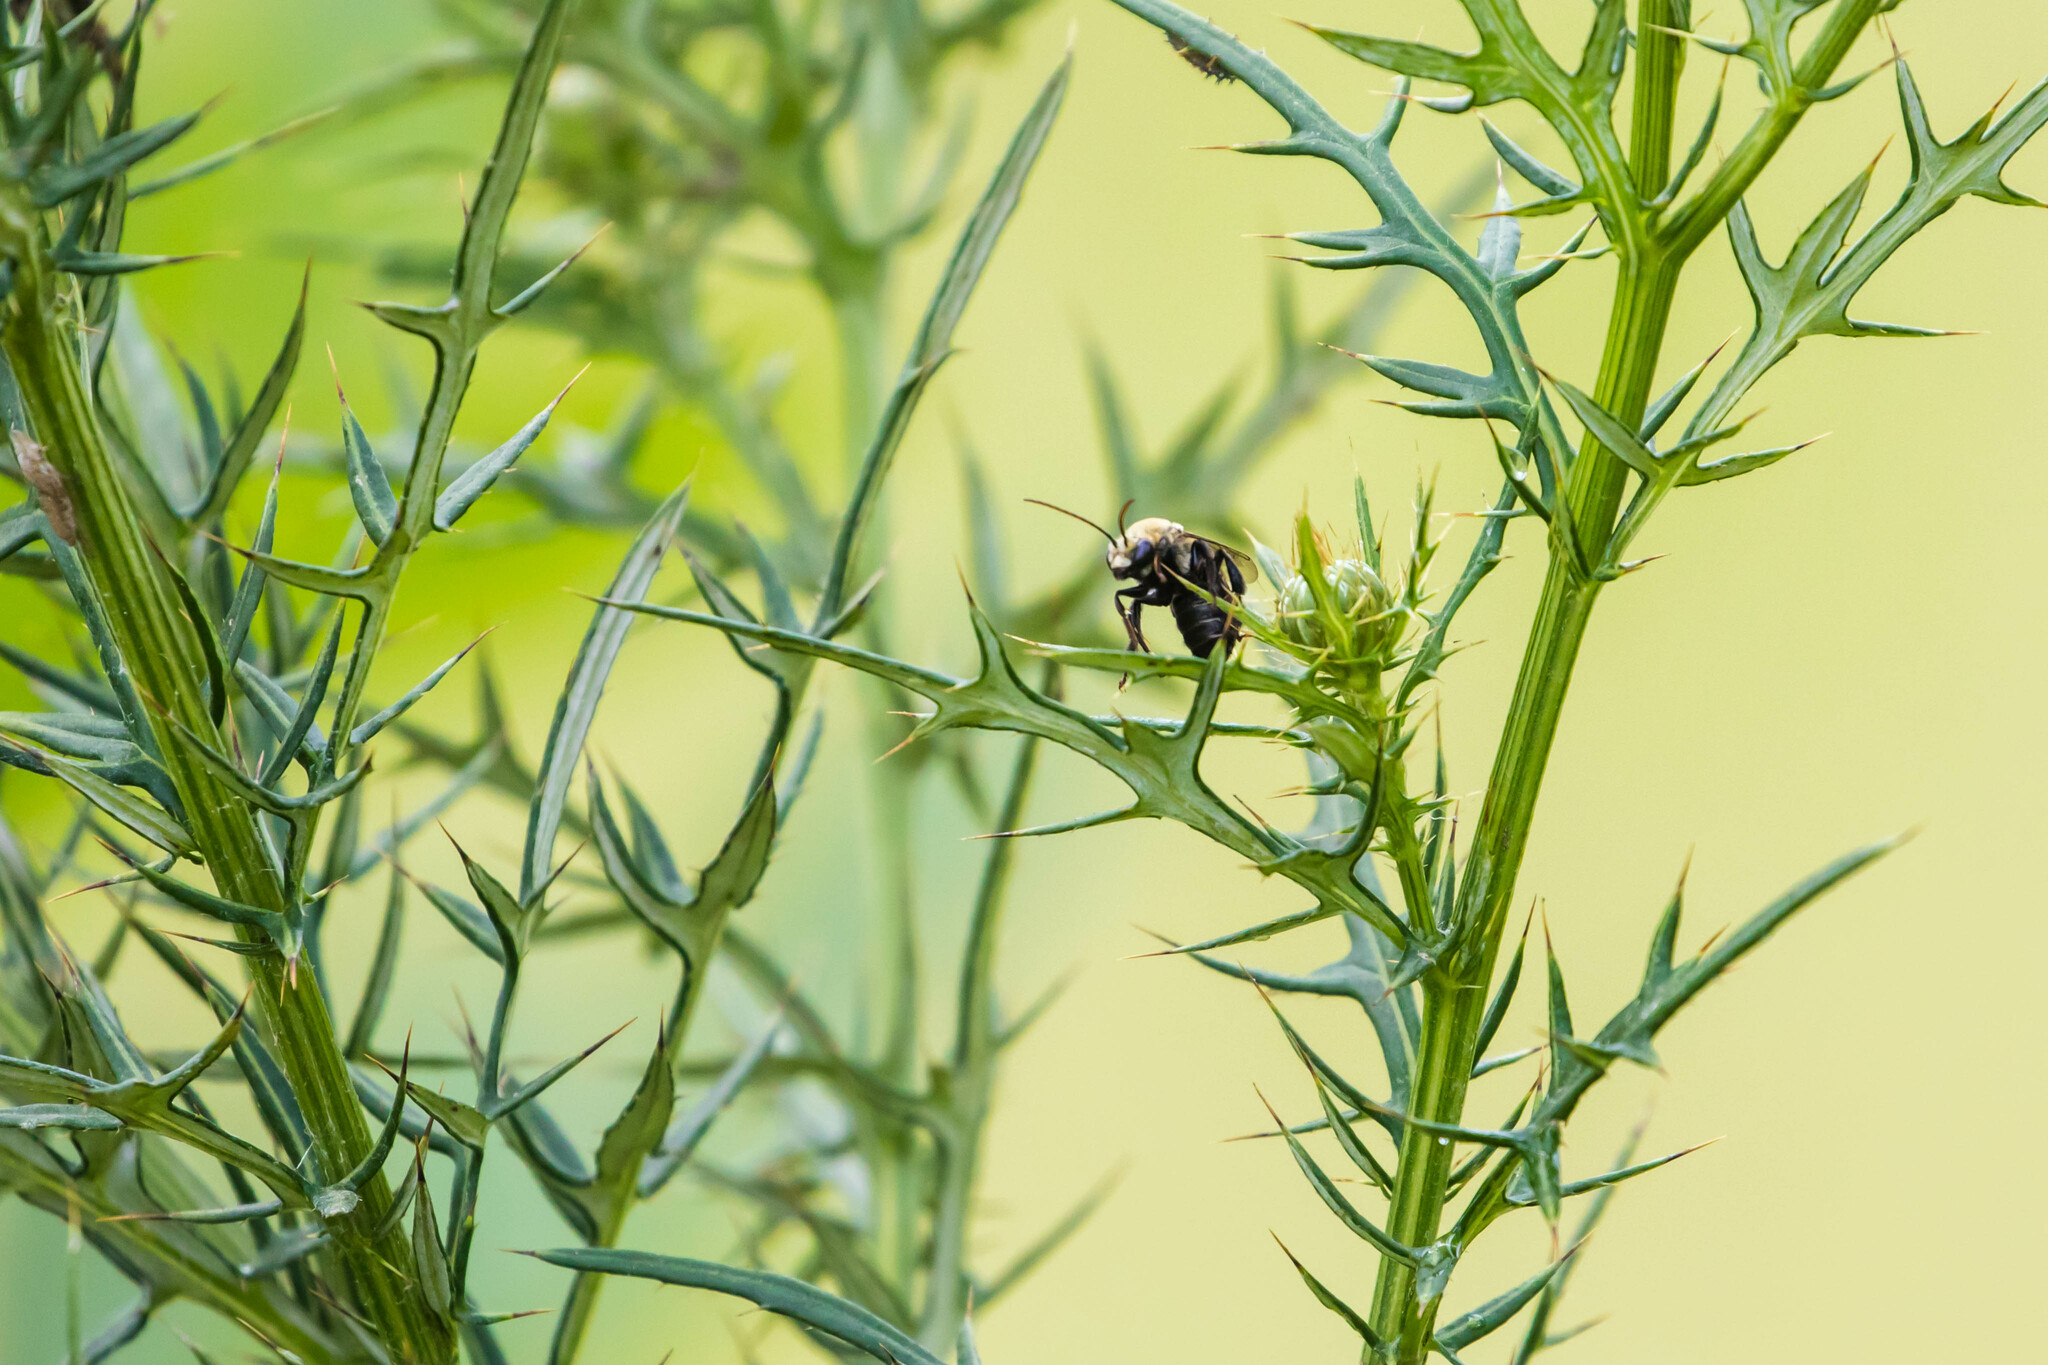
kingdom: Animalia
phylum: Arthropoda
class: Insecta
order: Hymenoptera
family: Apidae
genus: Melissodes
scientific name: Melissodes desponsus
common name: Thistle long-horned bee
